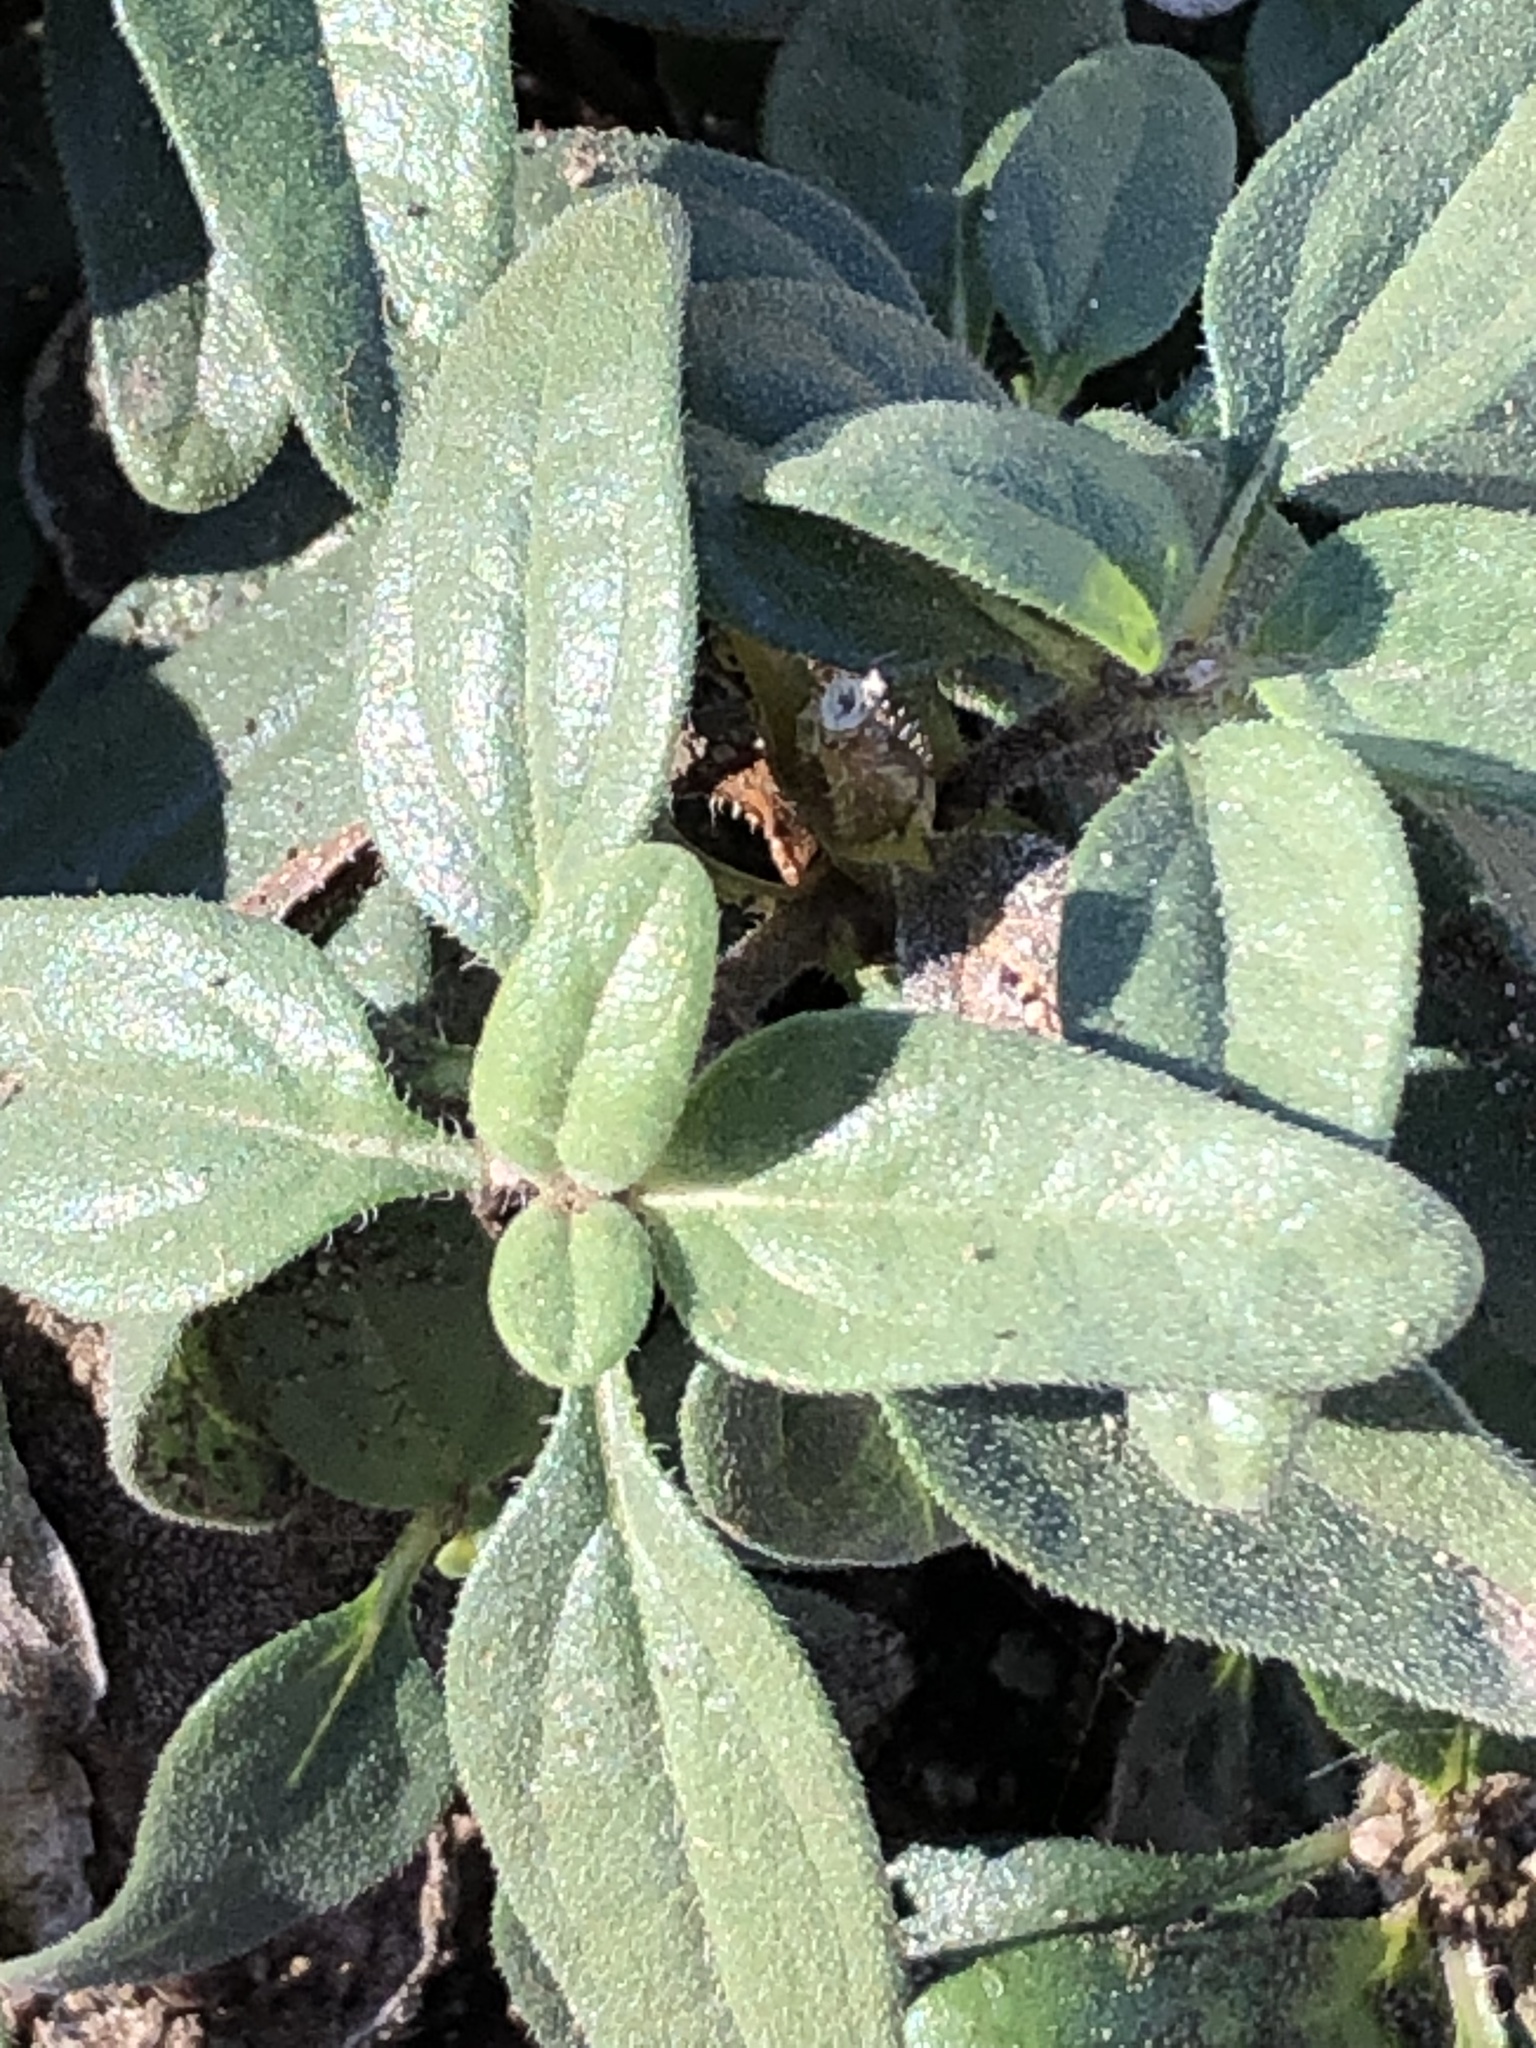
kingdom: Plantae
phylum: Tracheophyta
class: Magnoliopsida
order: Asterales
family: Asteraceae
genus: Helianthus
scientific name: Helianthus gracilentus
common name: Slender sunflower
